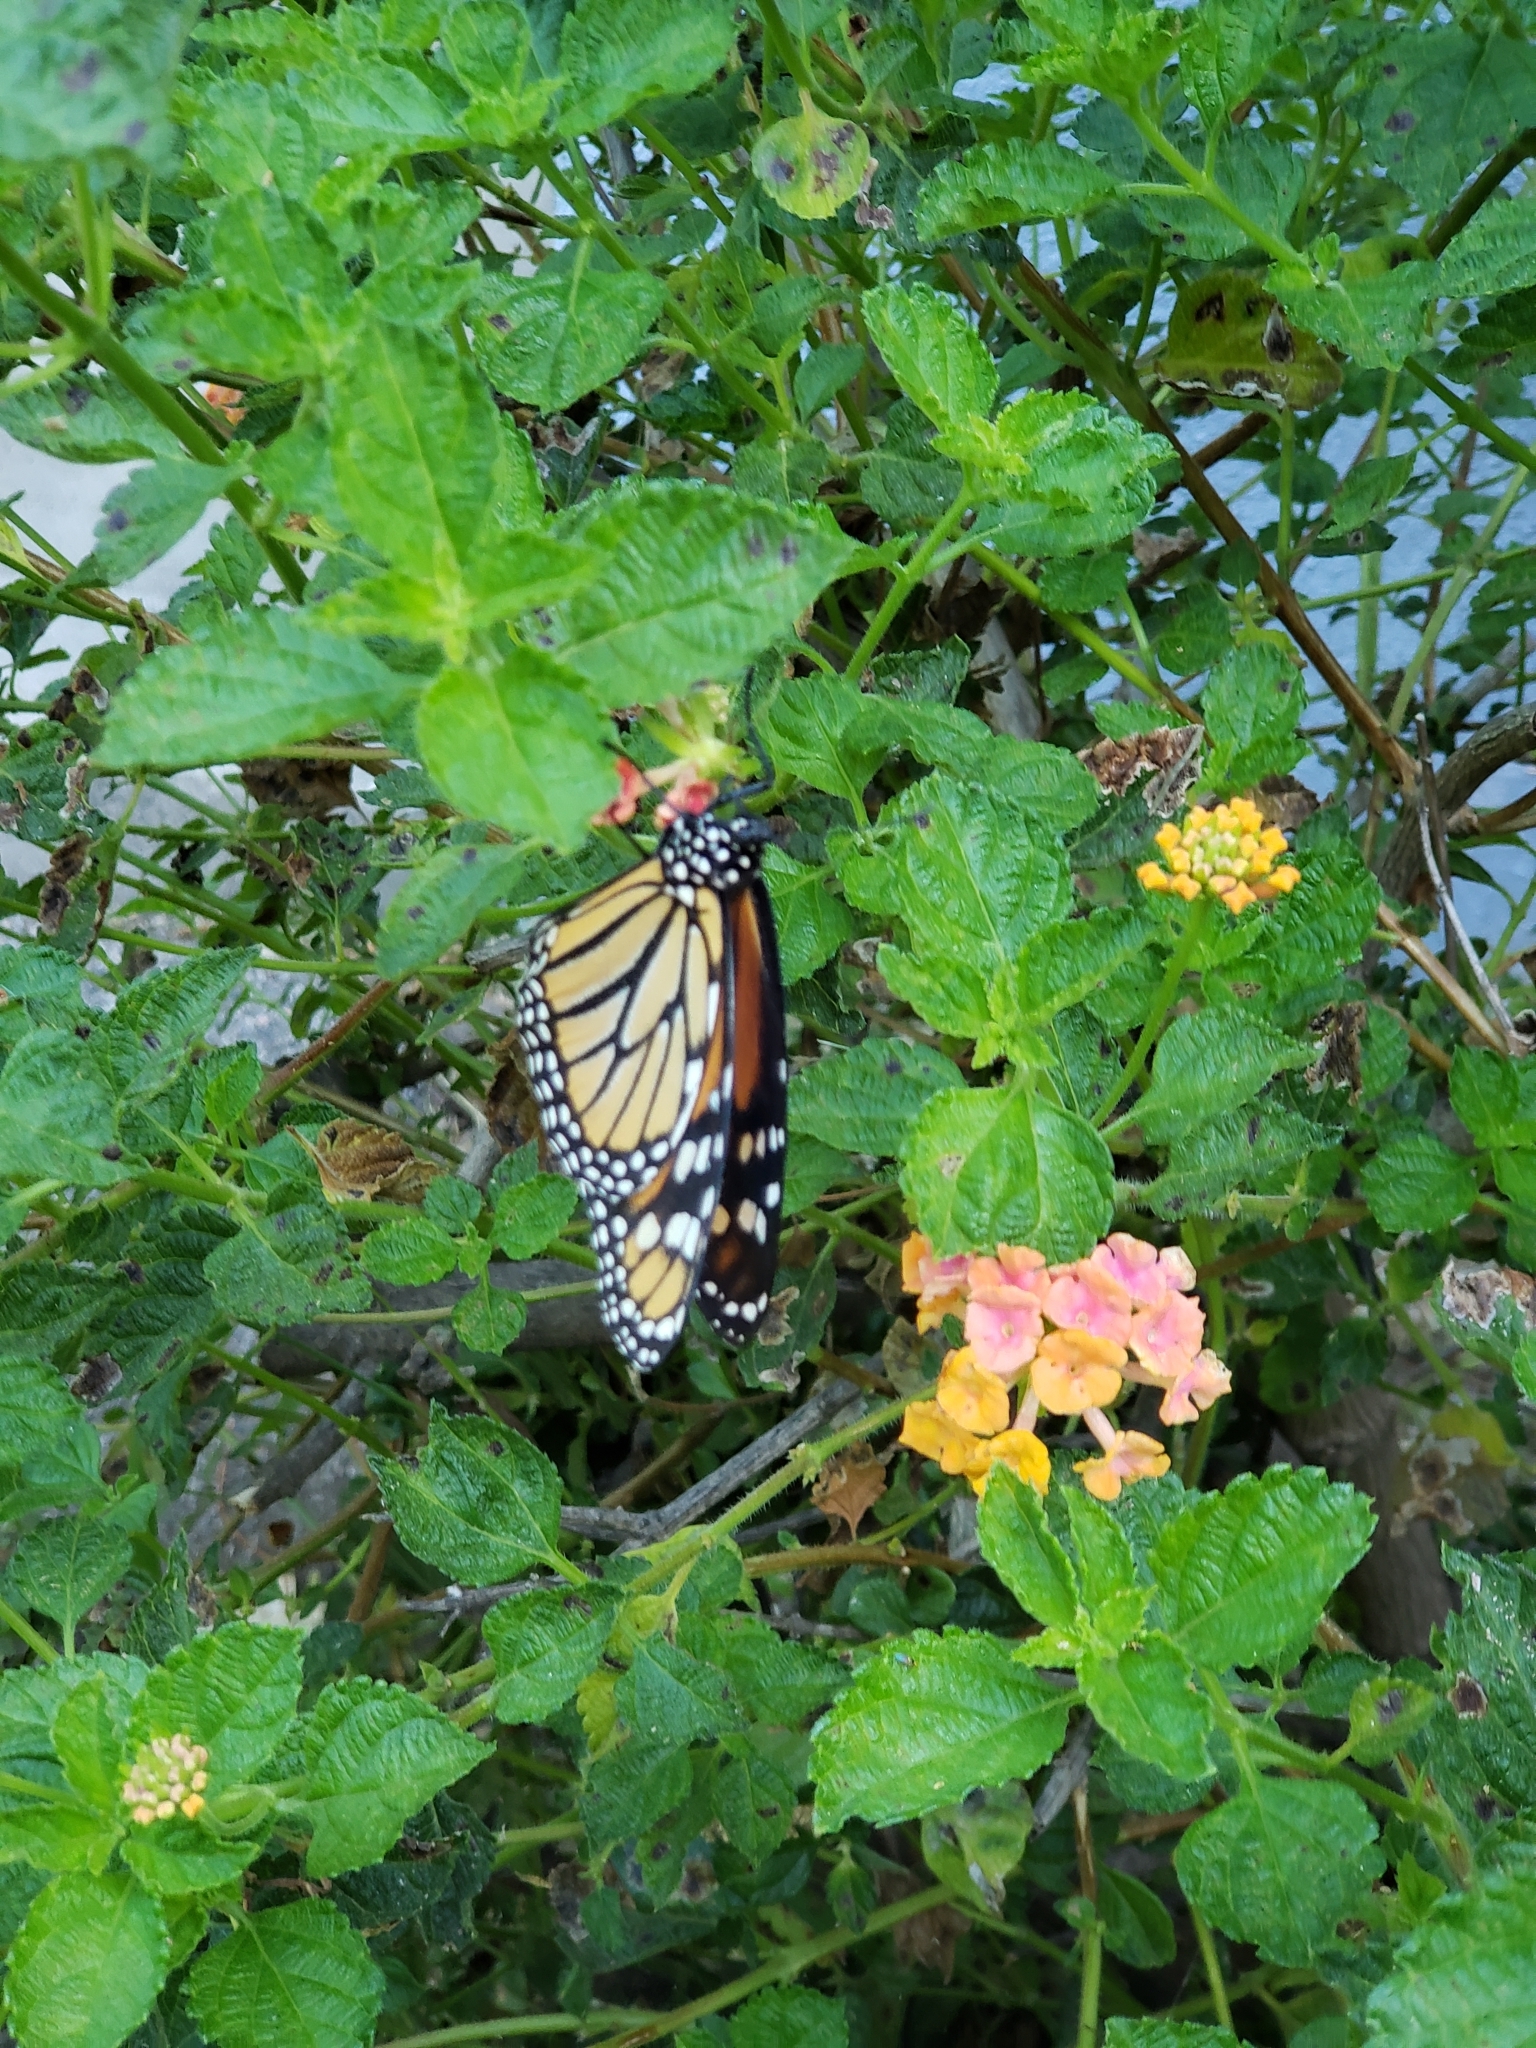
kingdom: Animalia
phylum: Arthropoda
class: Insecta
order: Lepidoptera
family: Nymphalidae
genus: Danaus
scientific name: Danaus plexippus
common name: Monarch
